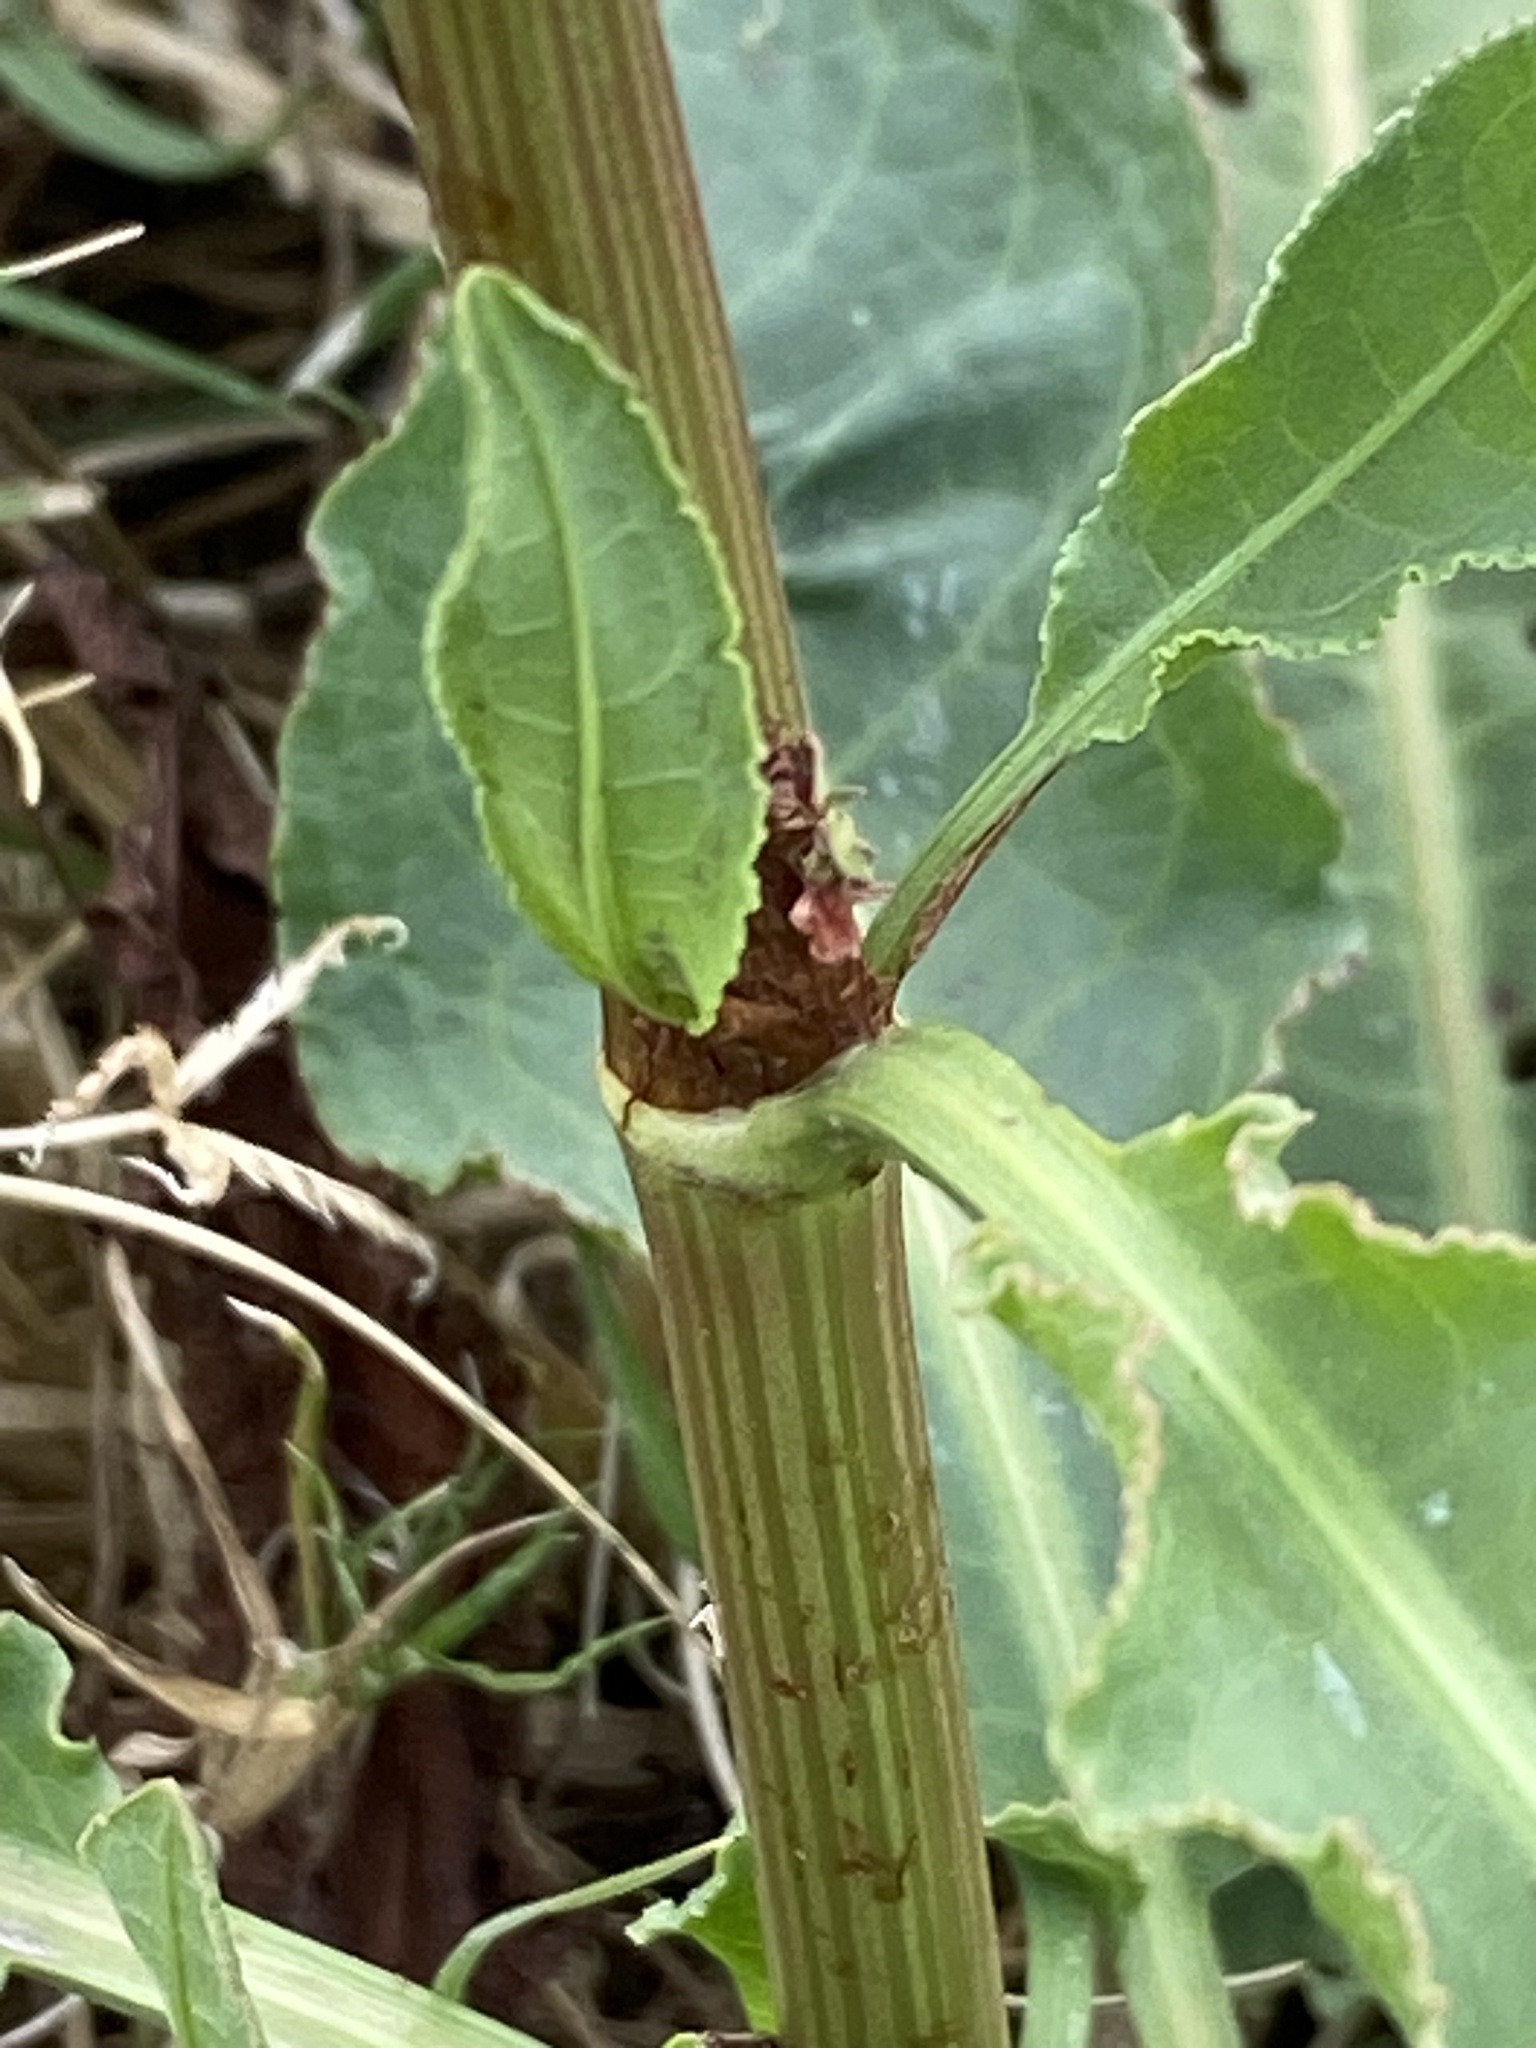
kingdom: Plantae
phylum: Tracheophyta
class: Magnoliopsida
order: Caryophyllales
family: Polygonaceae
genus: Rumex
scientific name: Rumex crispus
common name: Curled dock
